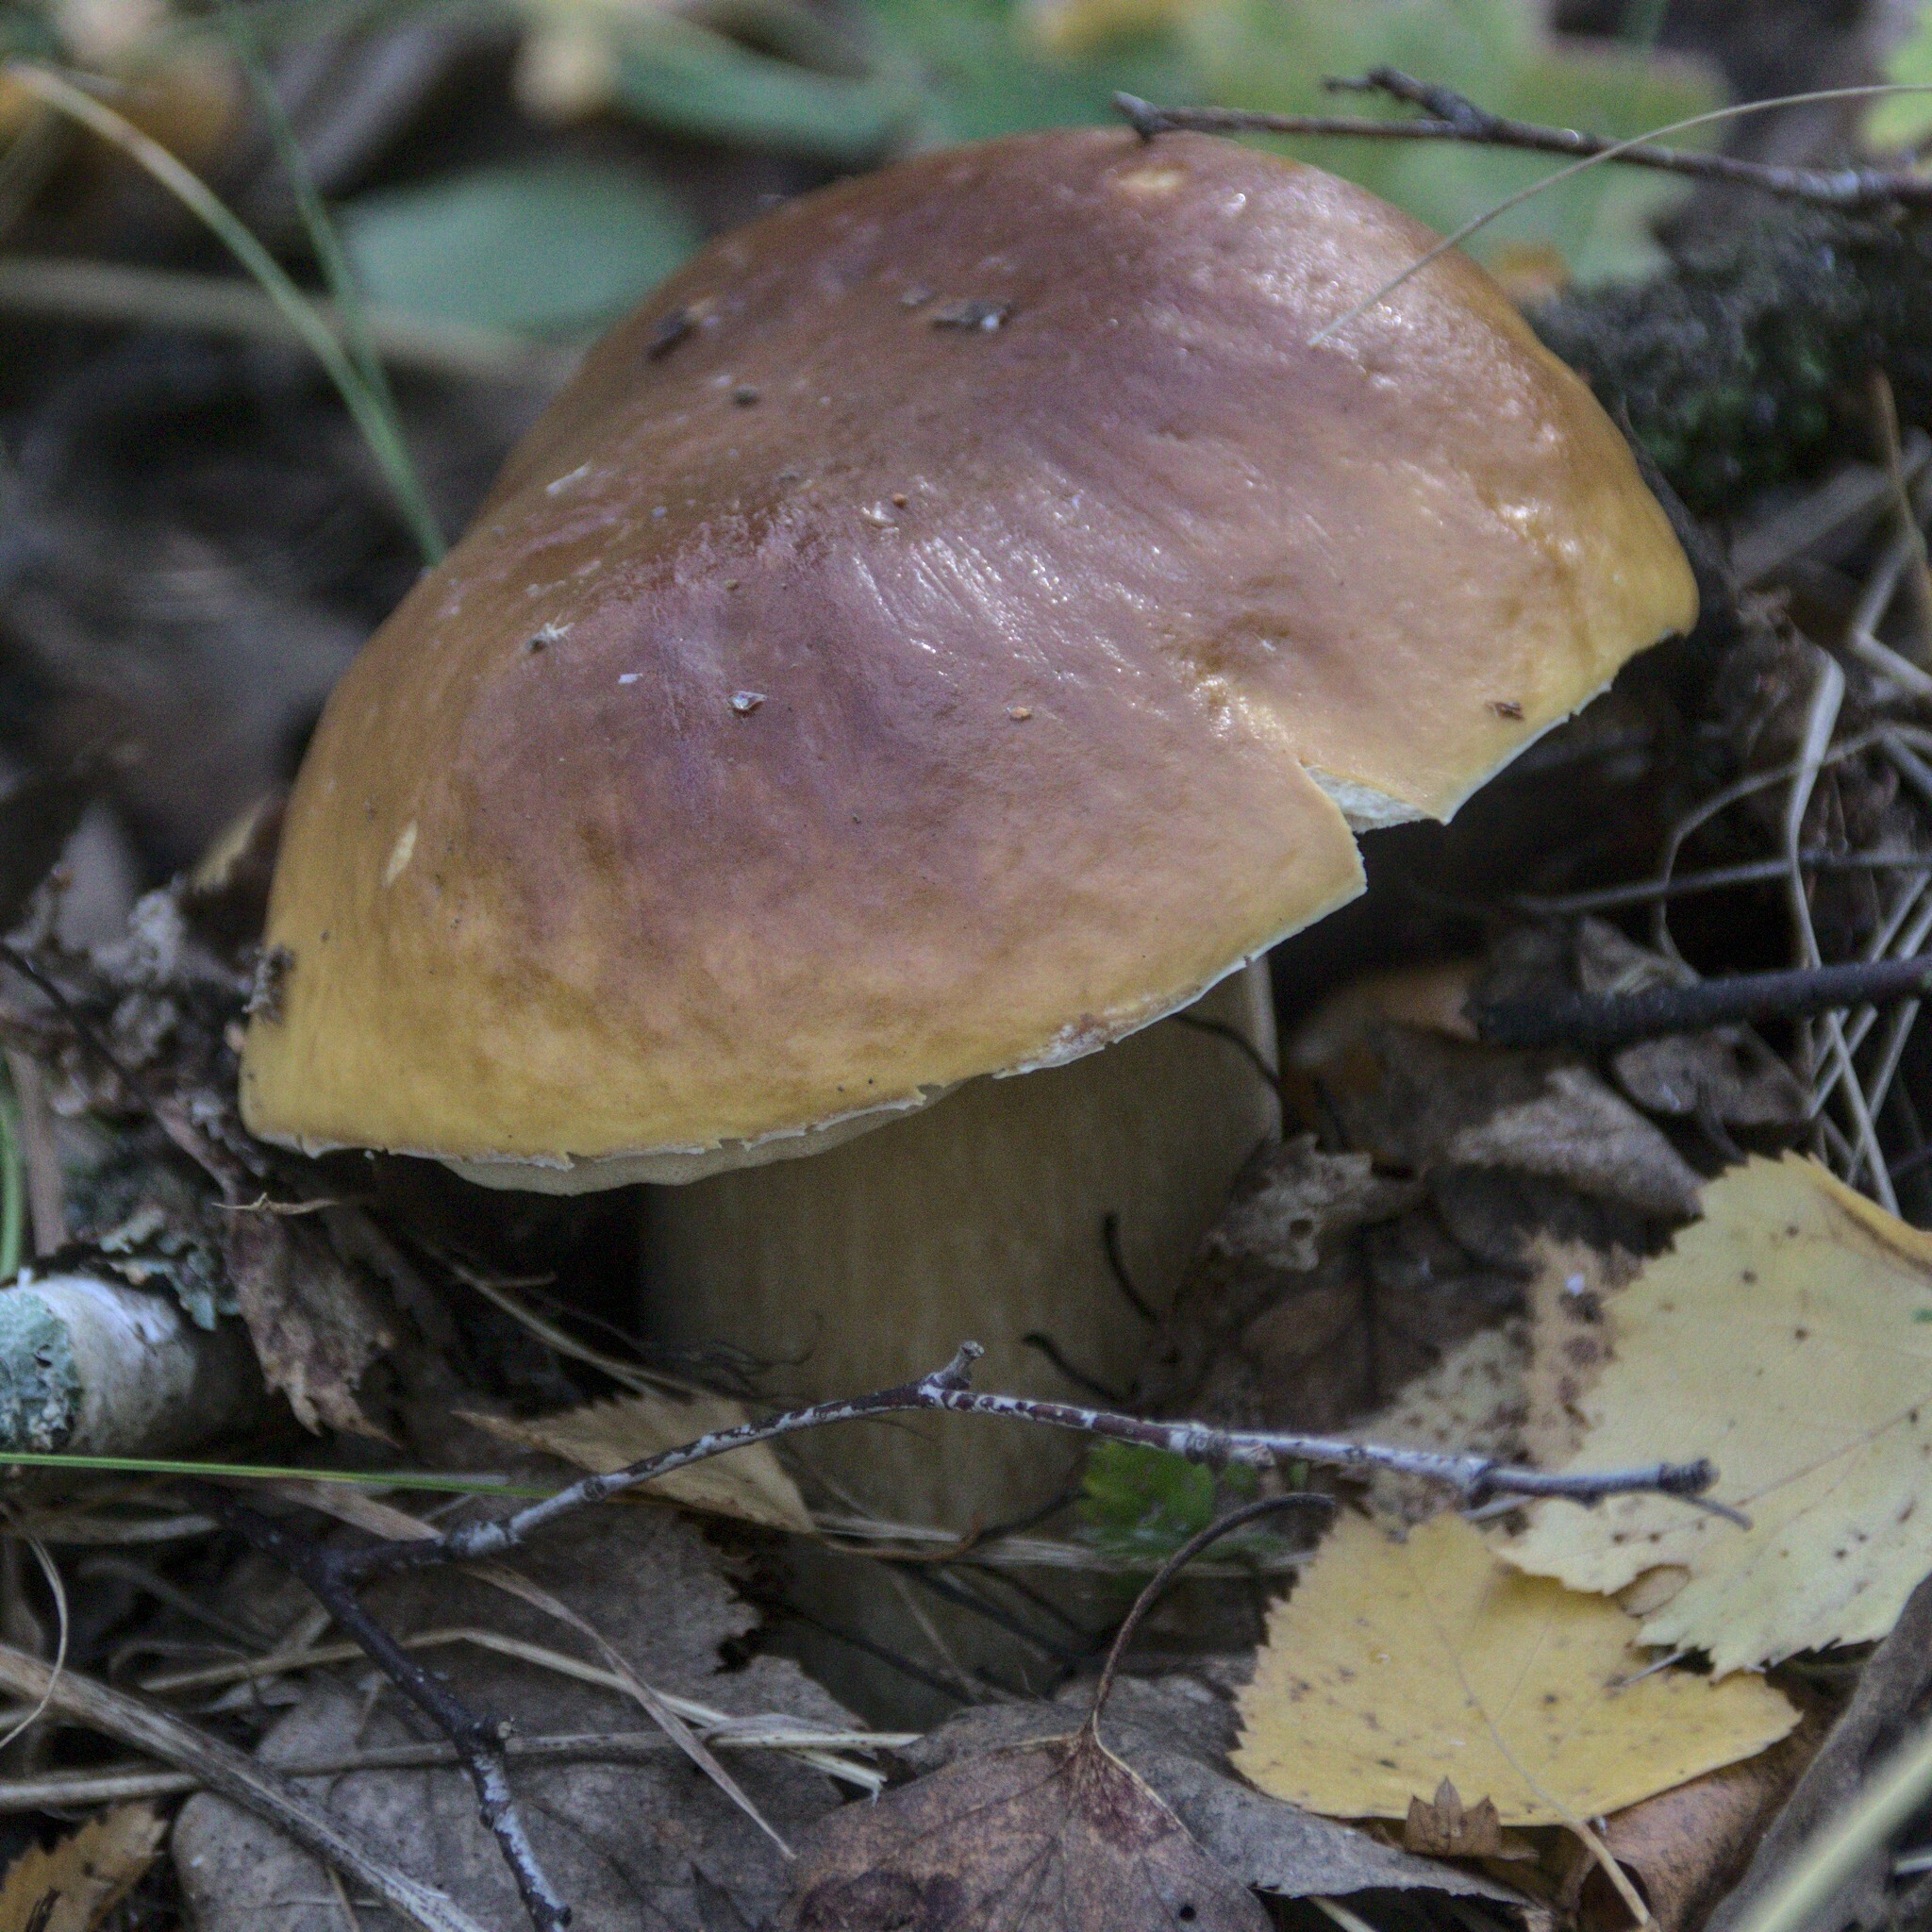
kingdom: Fungi
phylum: Basidiomycota
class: Agaricomycetes
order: Boletales
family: Boletaceae
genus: Boletus
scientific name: Boletus edulis
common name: Cep
